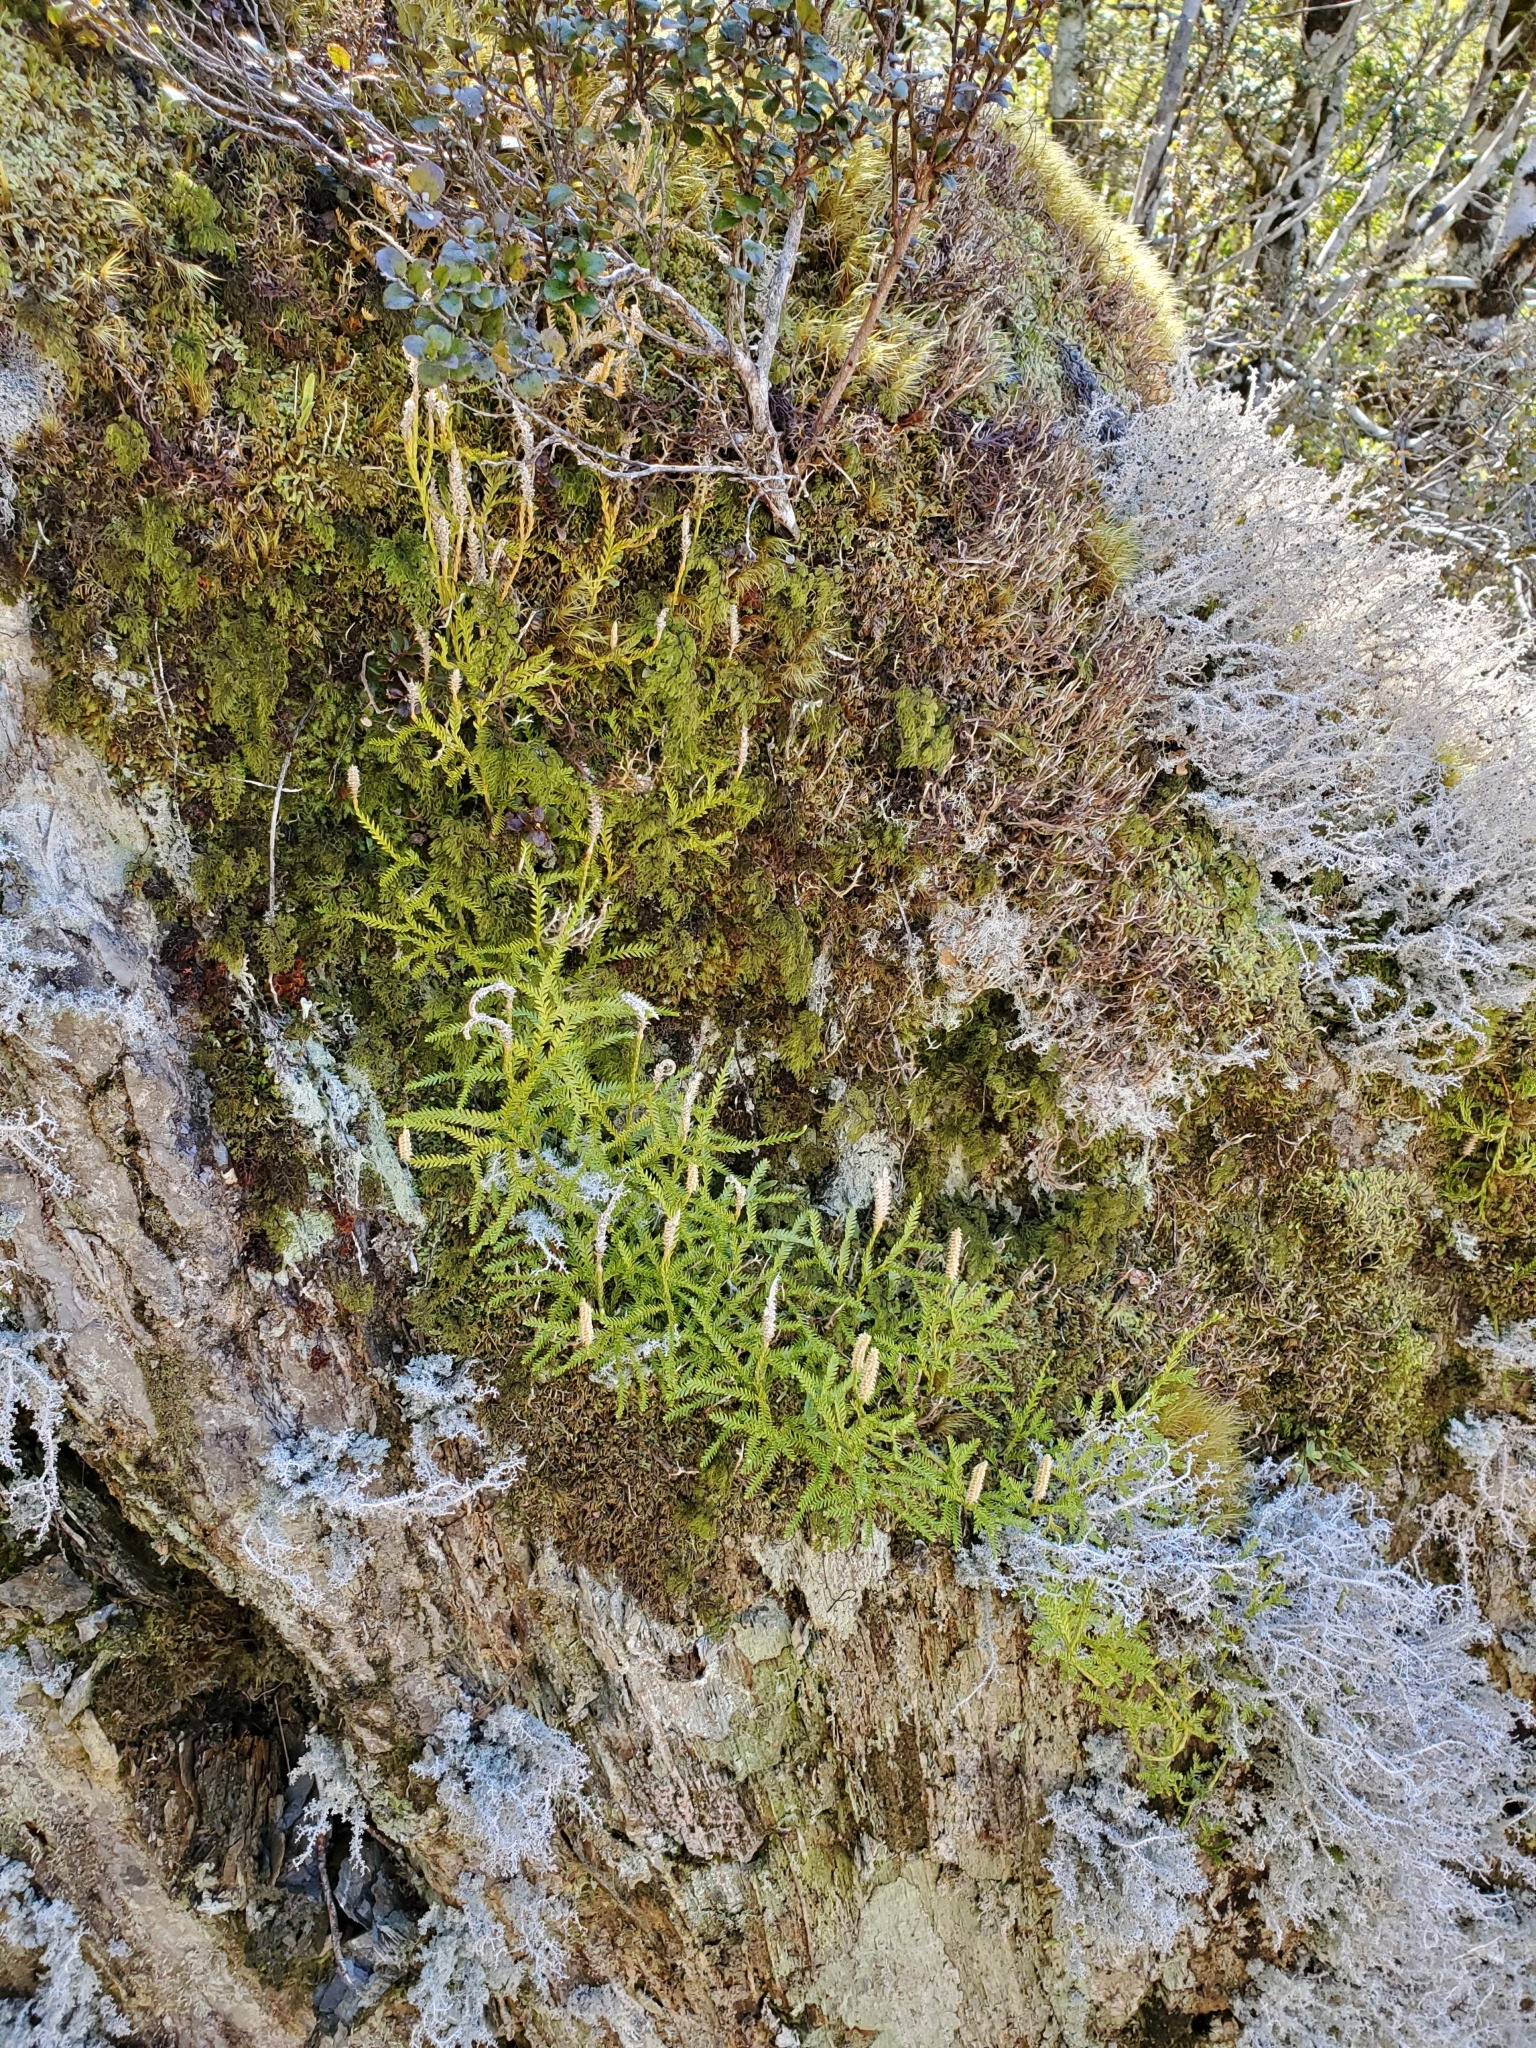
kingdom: Plantae
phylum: Tracheophyta
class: Lycopodiopsida
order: Lycopodiales
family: Lycopodiaceae
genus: Diphasium
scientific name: Diphasium scariosum
